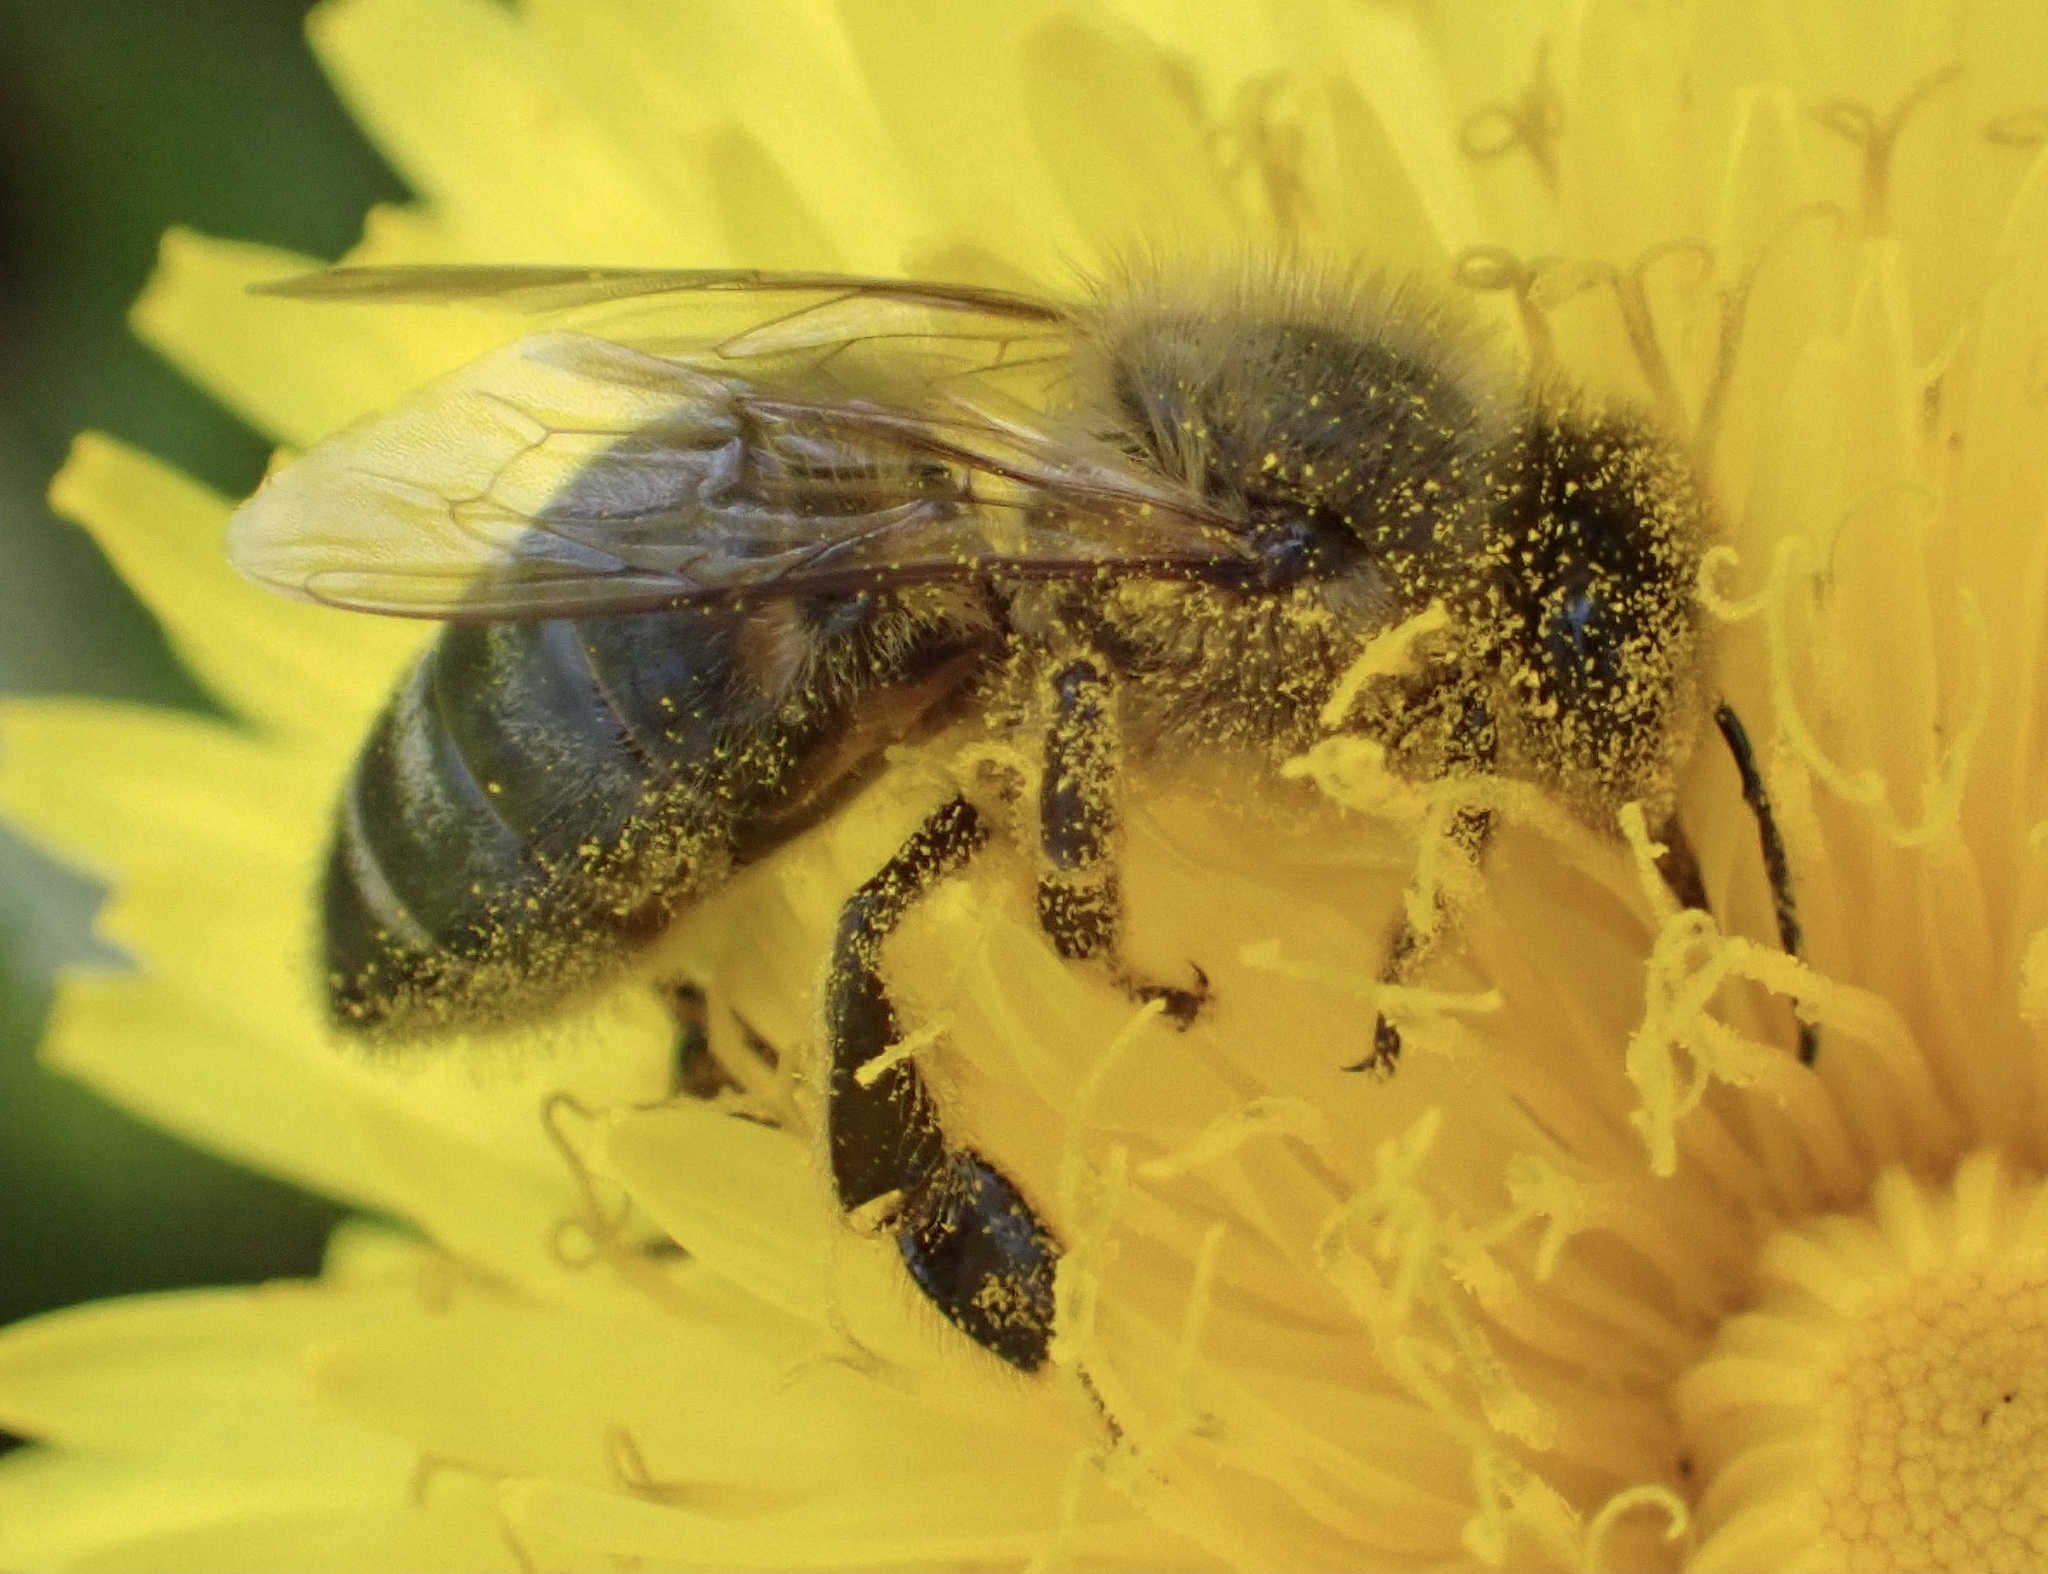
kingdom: Animalia
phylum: Arthropoda
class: Insecta
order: Hymenoptera
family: Apidae
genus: Apis
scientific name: Apis mellifera
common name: Honey bee
